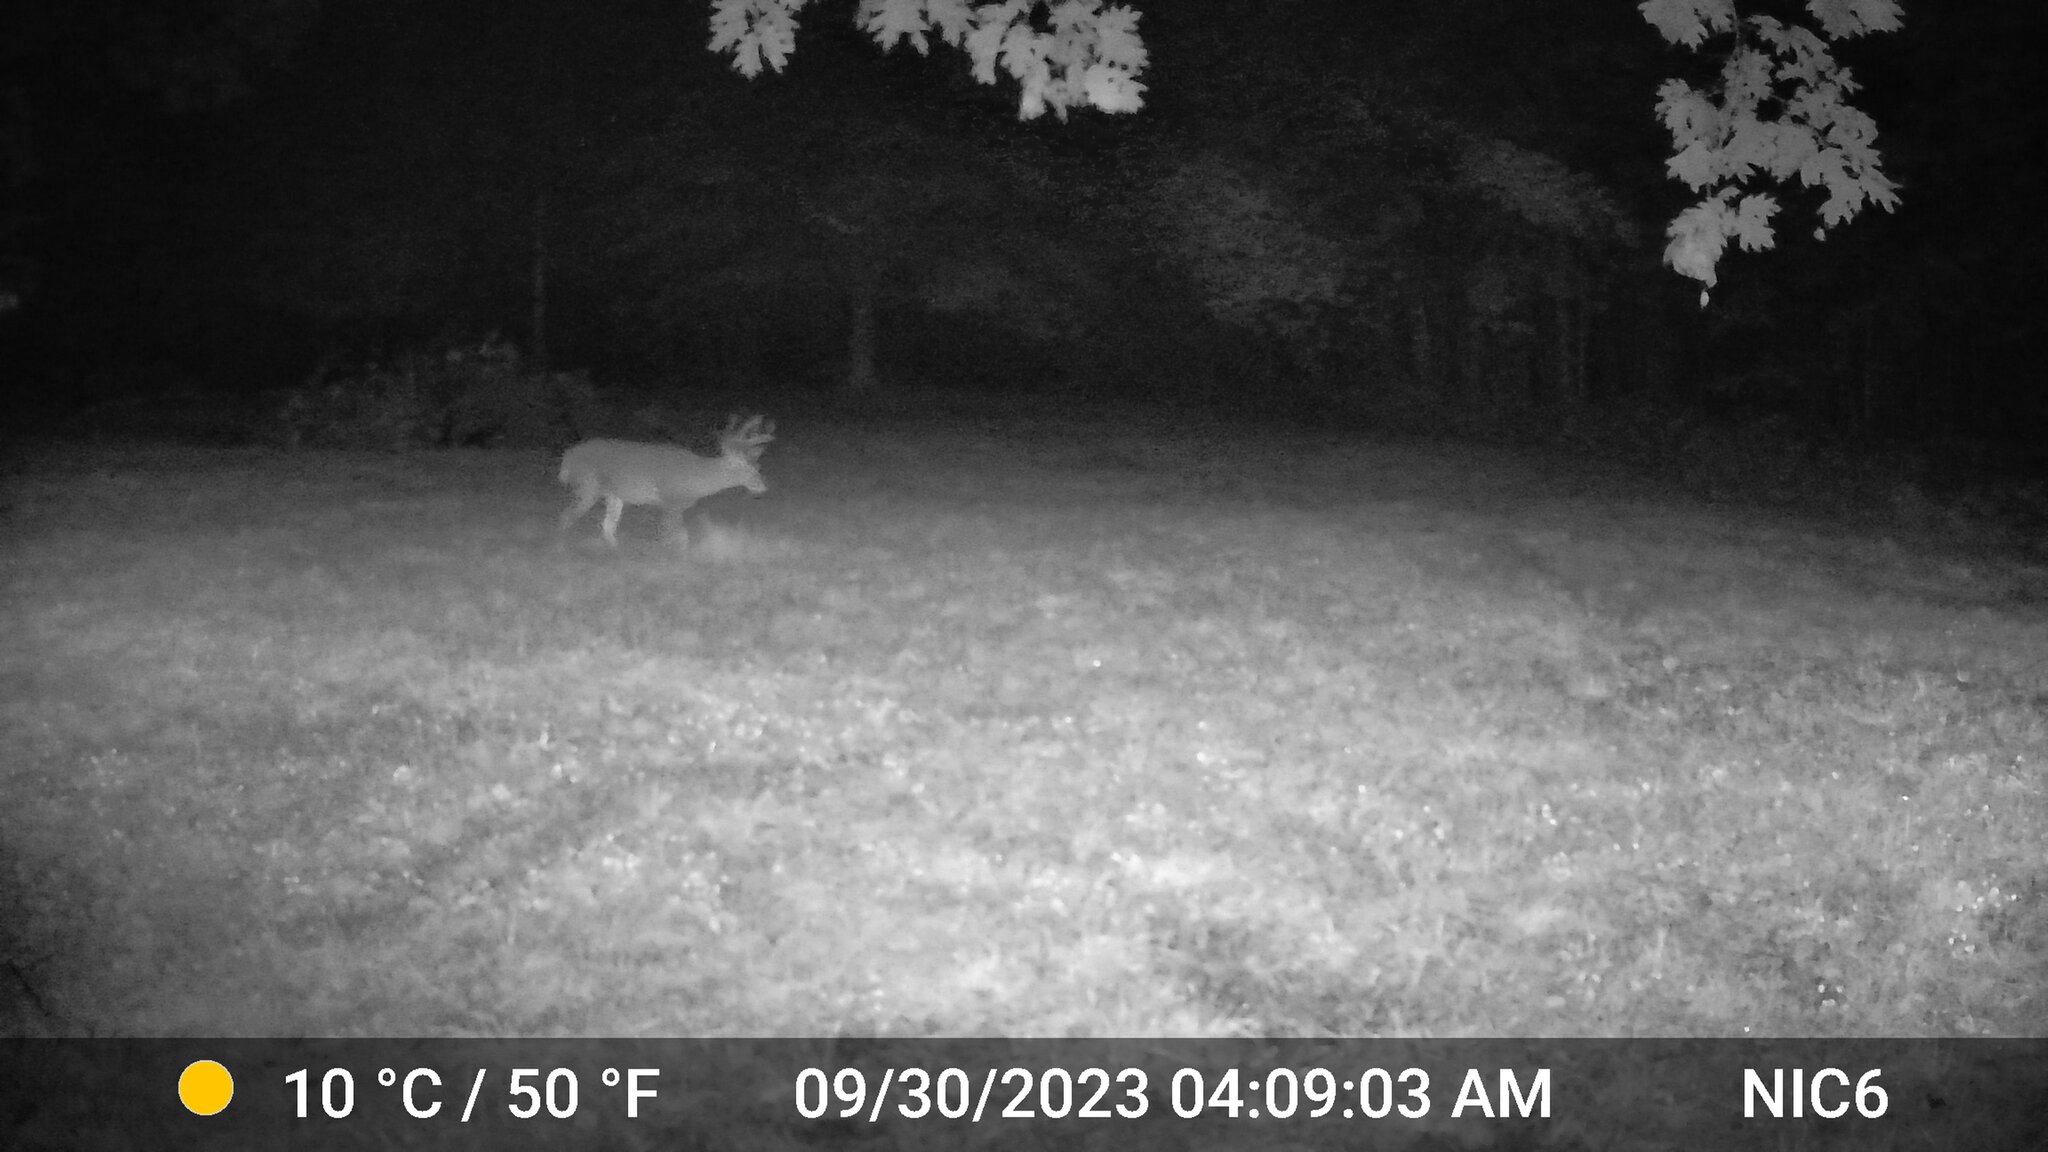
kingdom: Animalia
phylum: Chordata
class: Mammalia
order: Artiodactyla
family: Cervidae
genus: Odocoileus
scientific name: Odocoileus virginianus
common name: White-tailed deer
